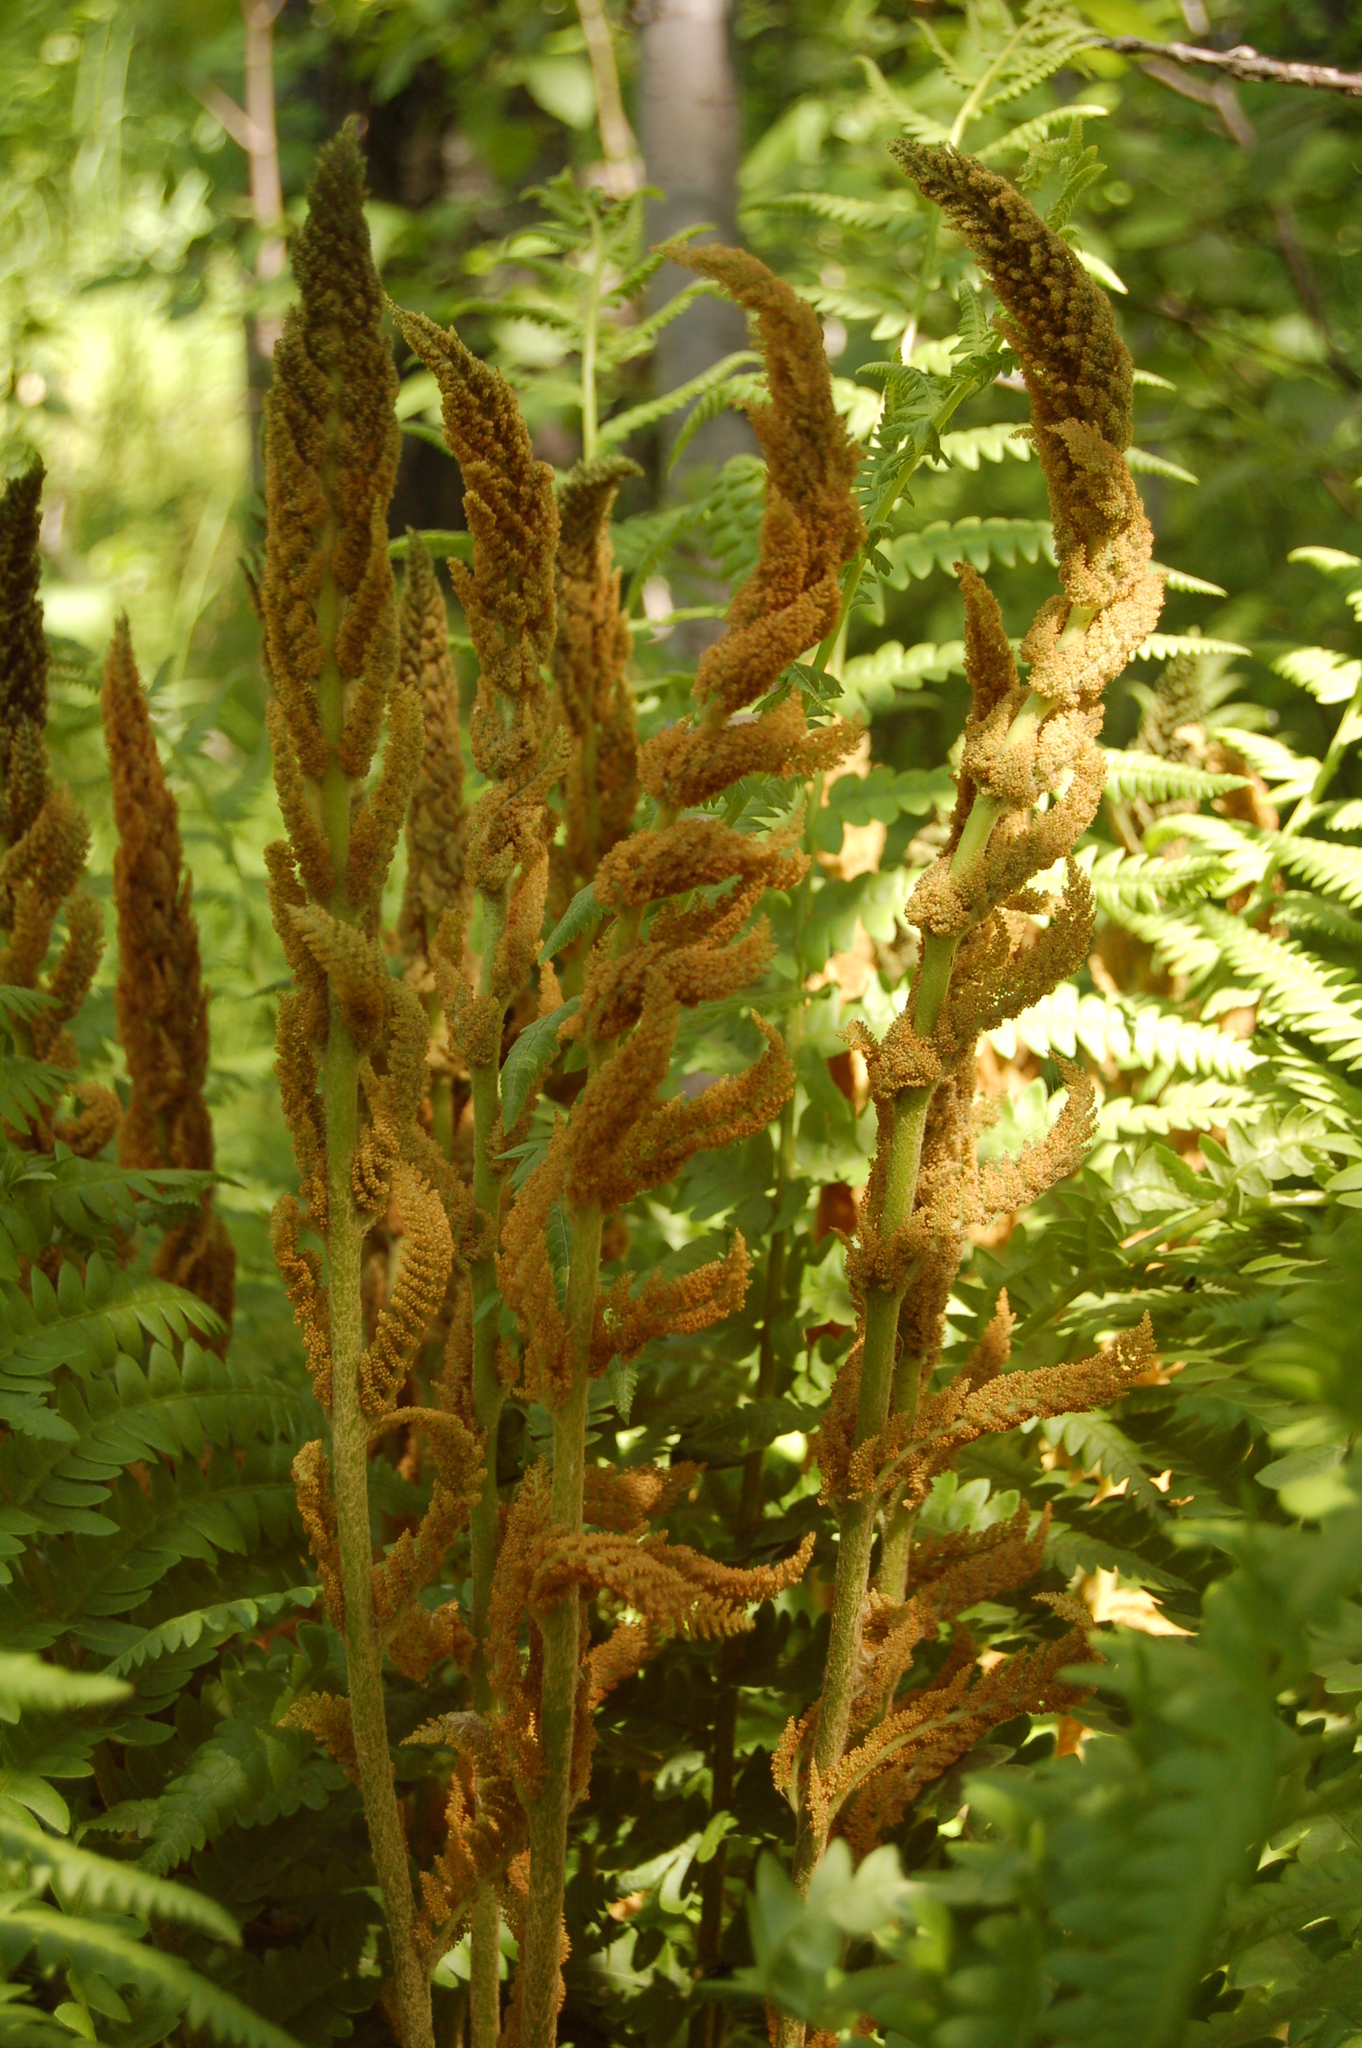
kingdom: Plantae
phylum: Tracheophyta
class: Polypodiopsida
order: Osmundales
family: Osmundaceae
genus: Osmundastrum
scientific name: Osmundastrum cinnamomeum
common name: Cinnamon fern
